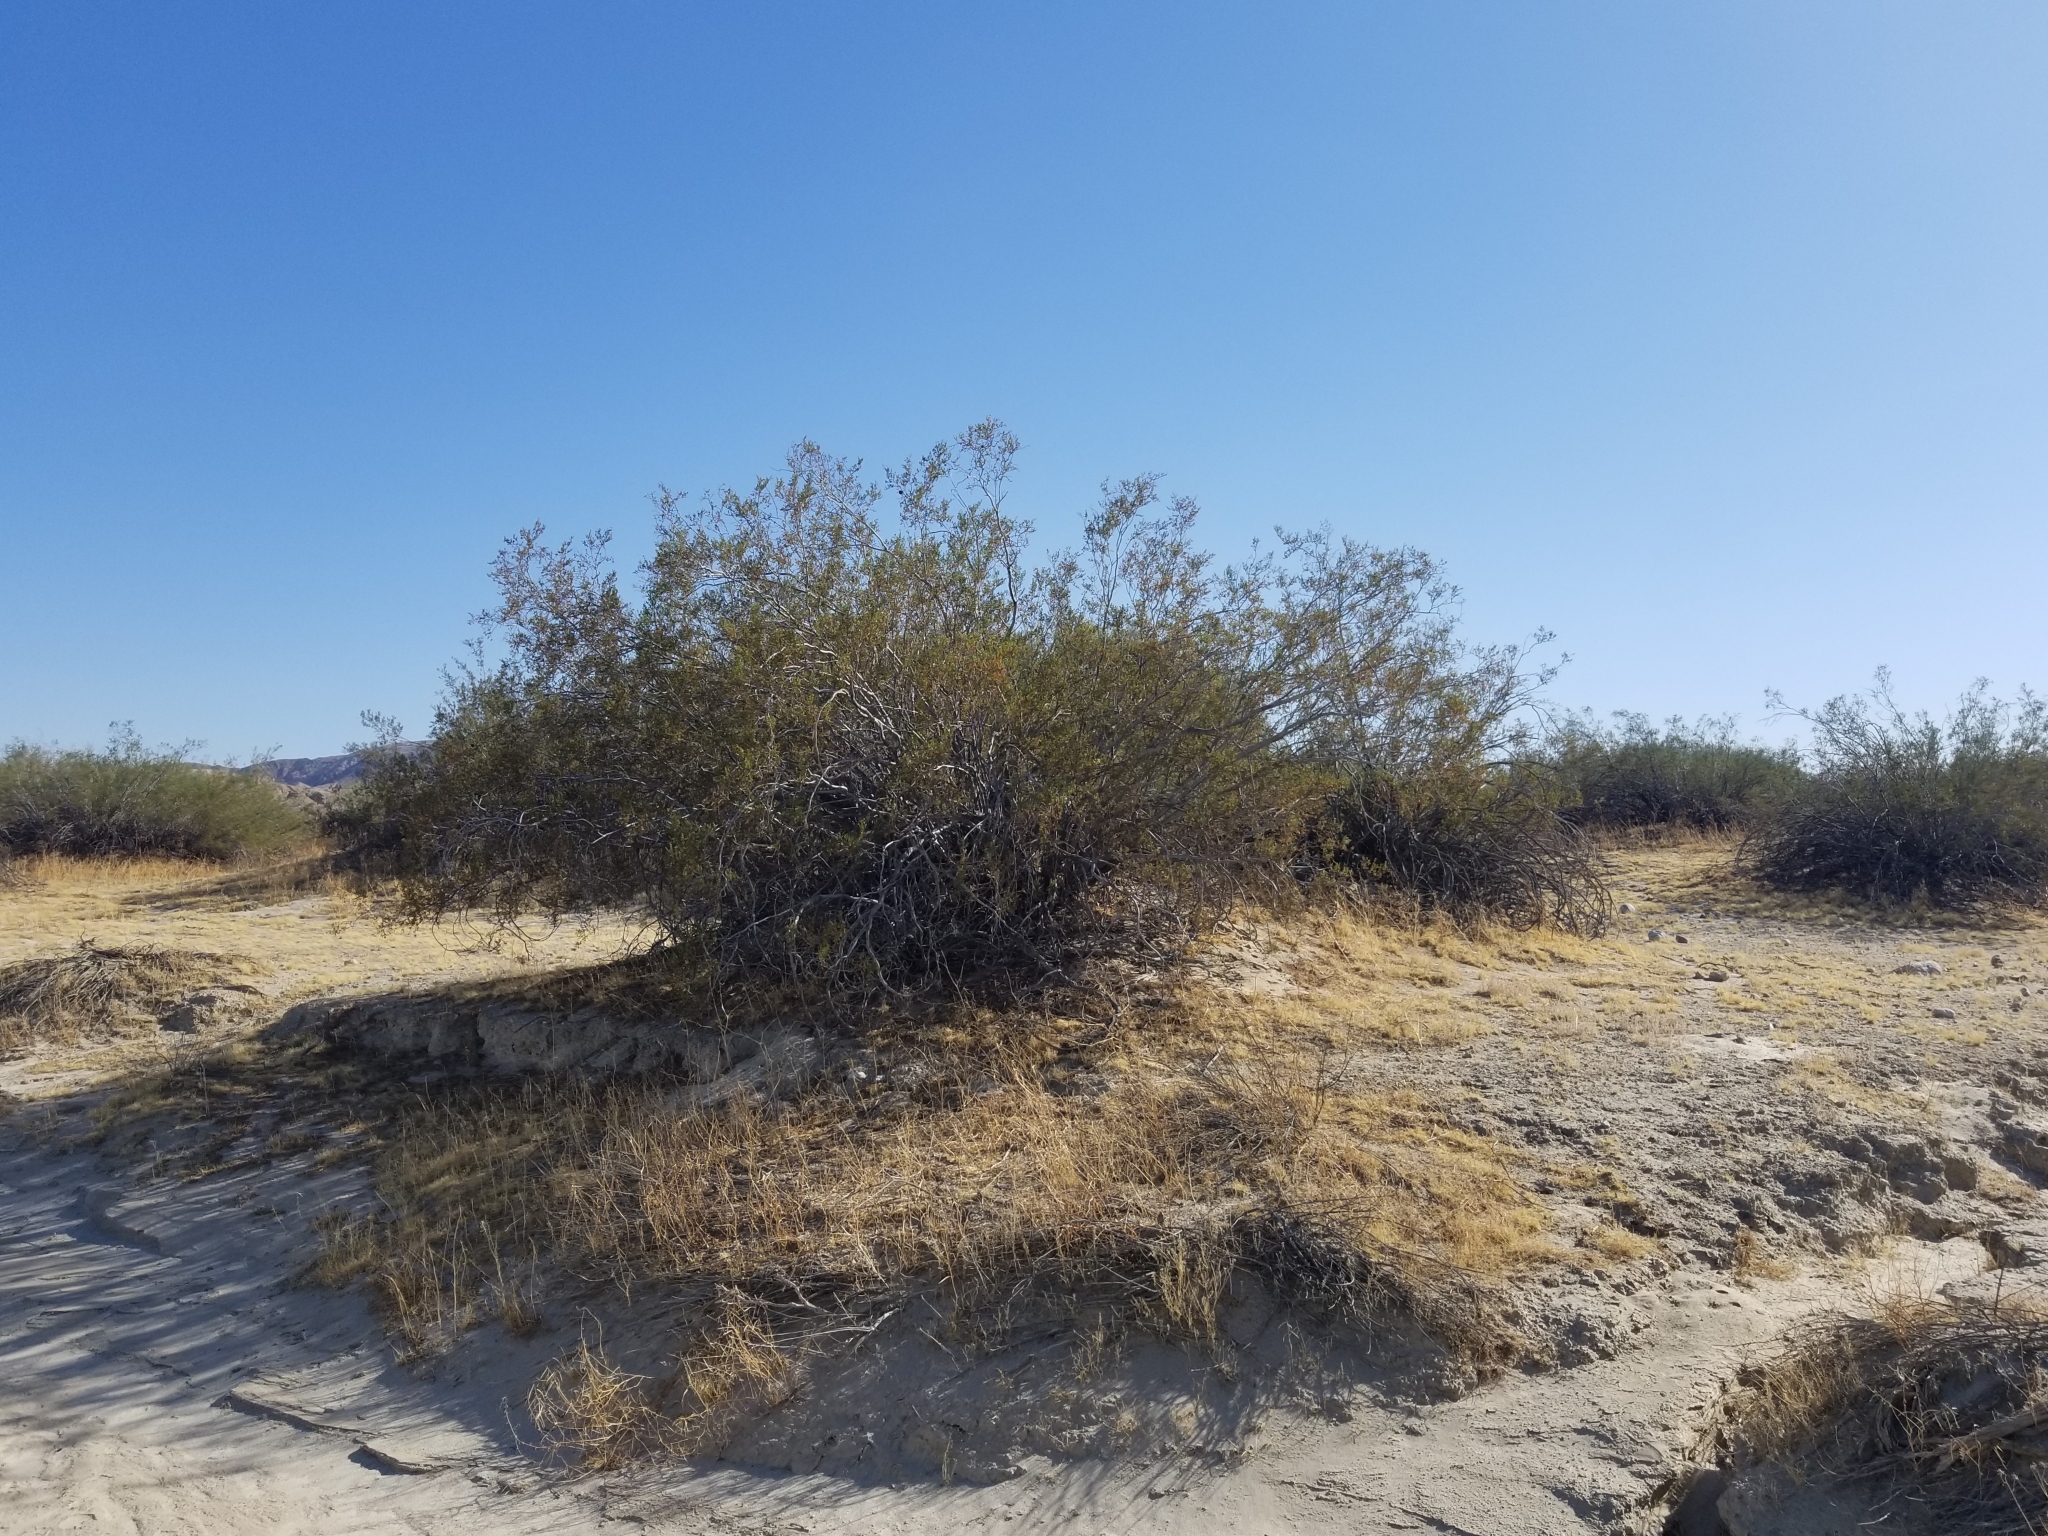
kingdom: Plantae
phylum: Tracheophyta
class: Magnoliopsida
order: Zygophyllales
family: Zygophyllaceae
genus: Larrea
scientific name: Larrea tridentata
